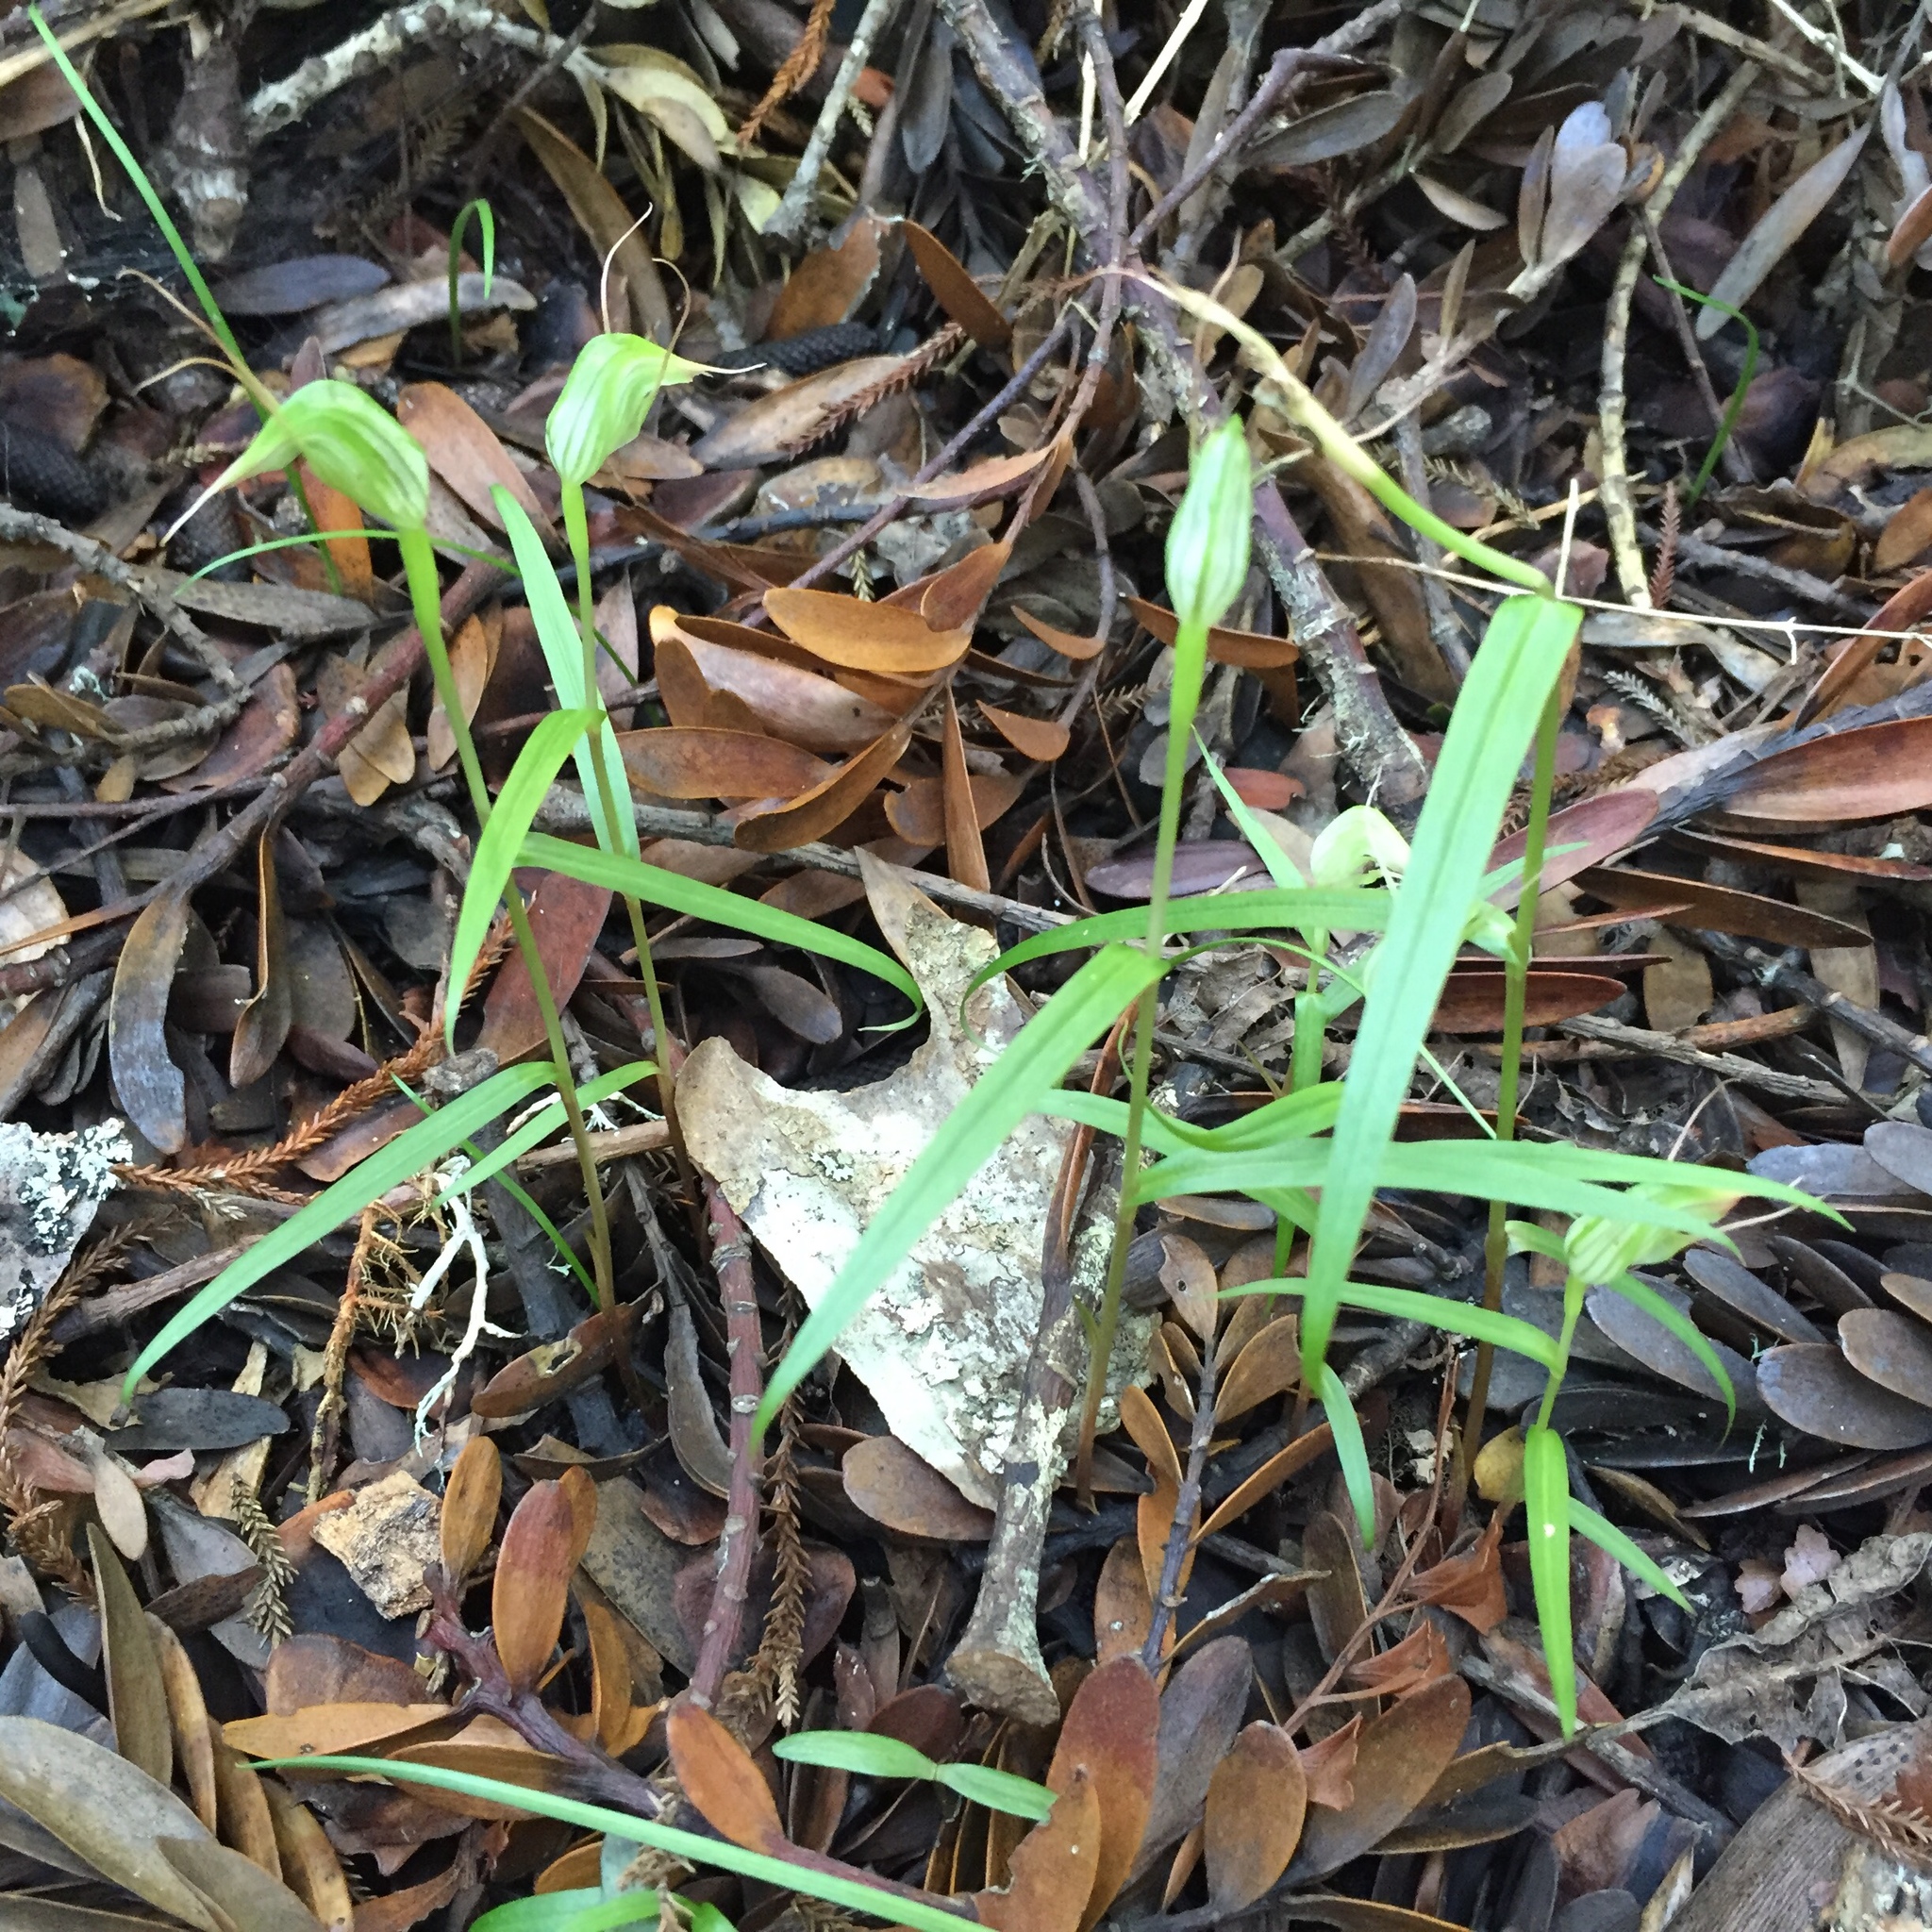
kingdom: Plantae
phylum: Tracheophyta
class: Liliopsida
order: Asparagales
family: Orchidaceae
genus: Pterostylis
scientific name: Pterostylis agathicola
